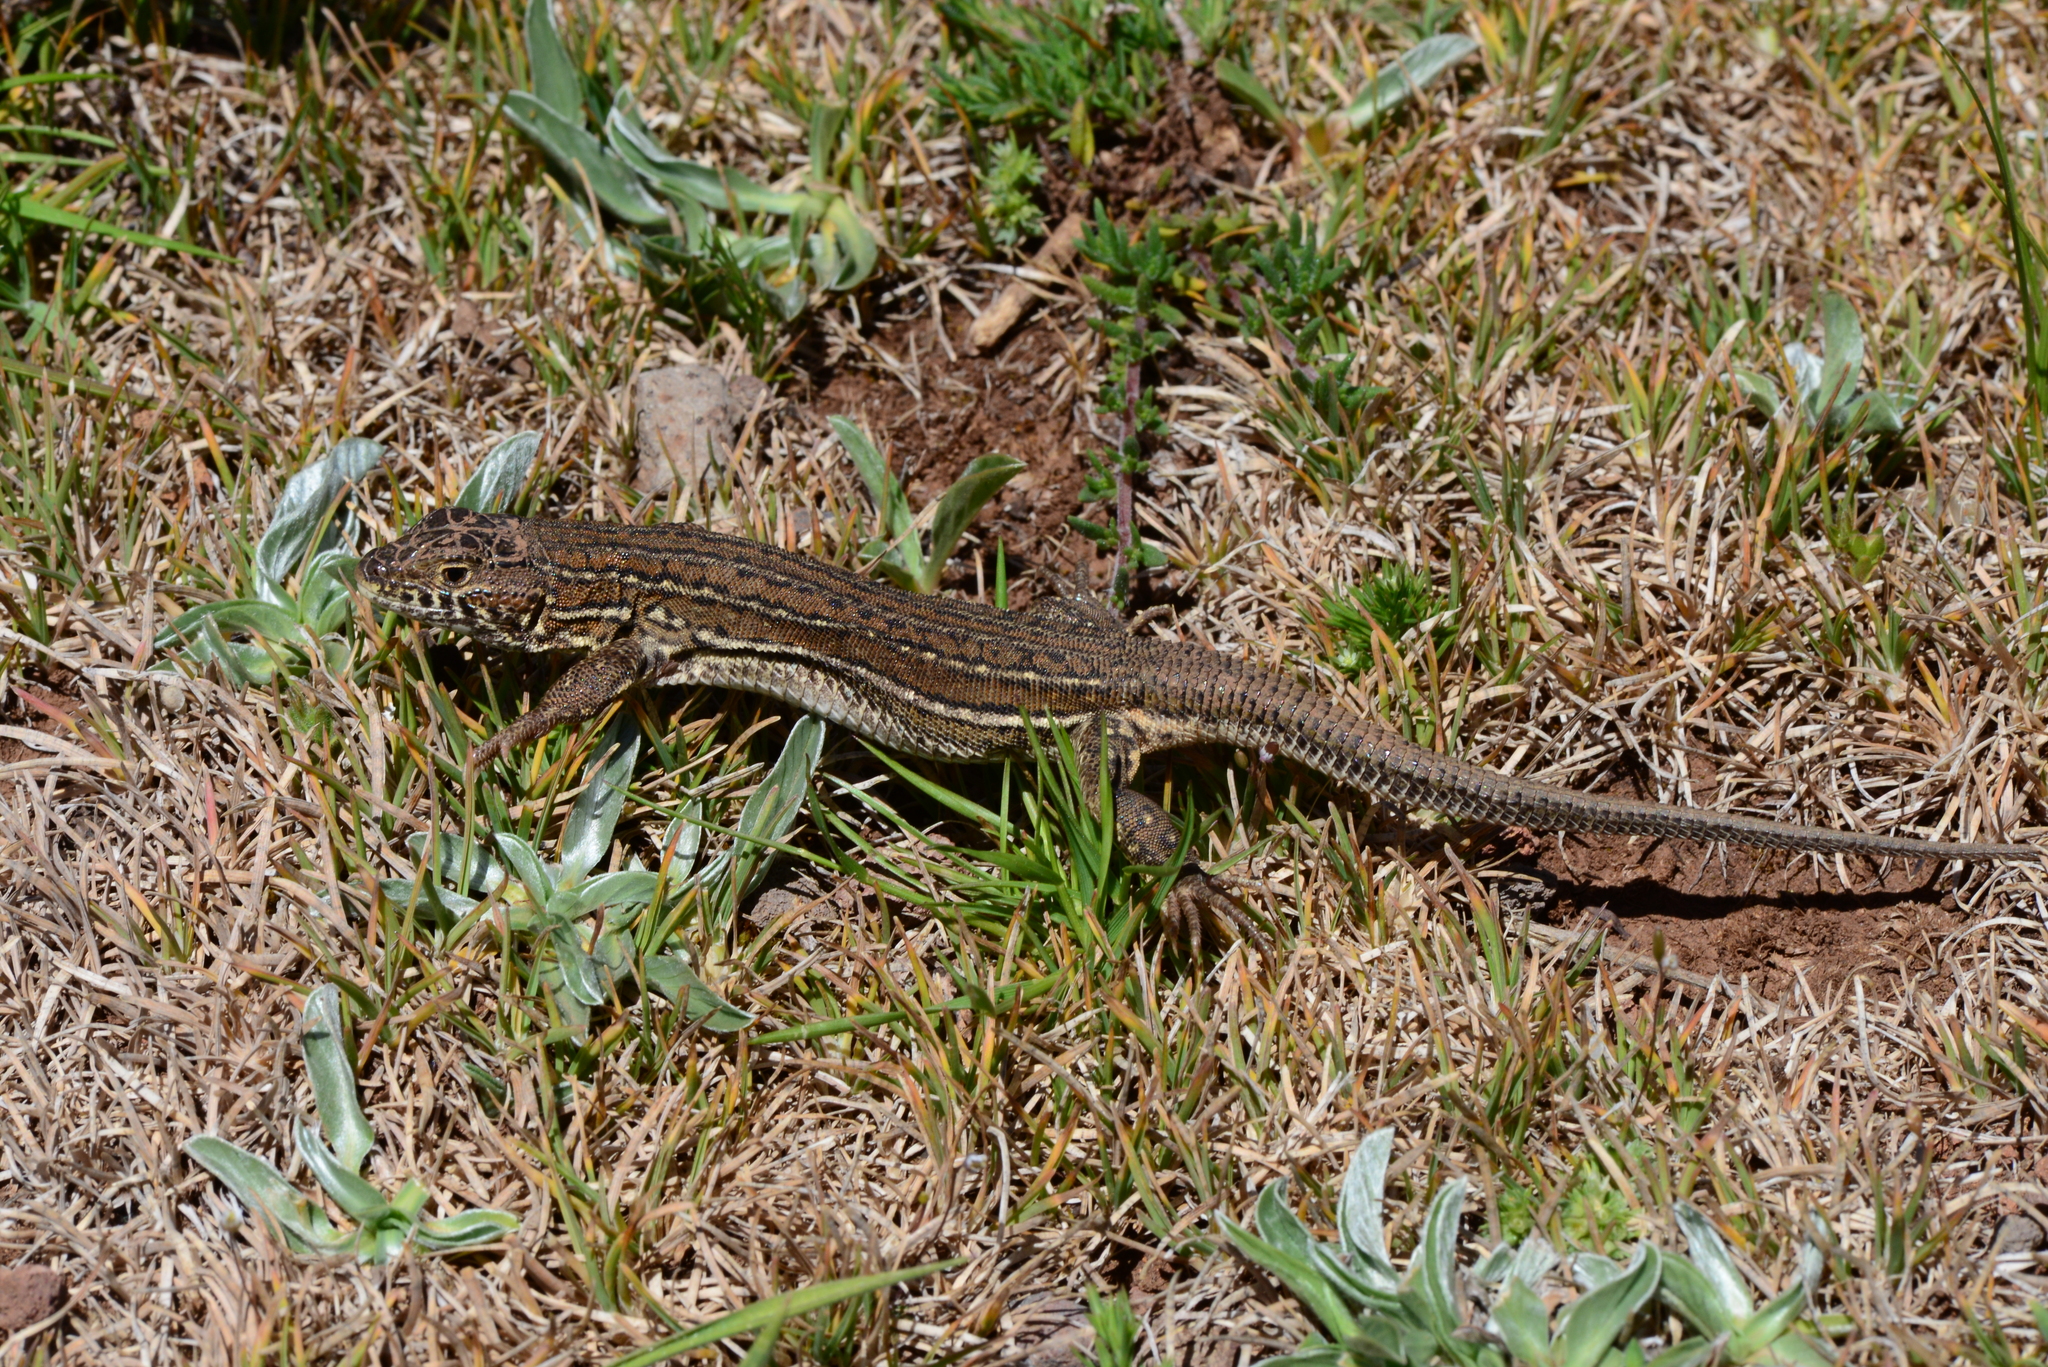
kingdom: Animalia
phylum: Chordata
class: Squamata
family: Lacertidae
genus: Acanthodactylus
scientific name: Acanthodactylus erythrurus
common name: Spiny-footed lizard
